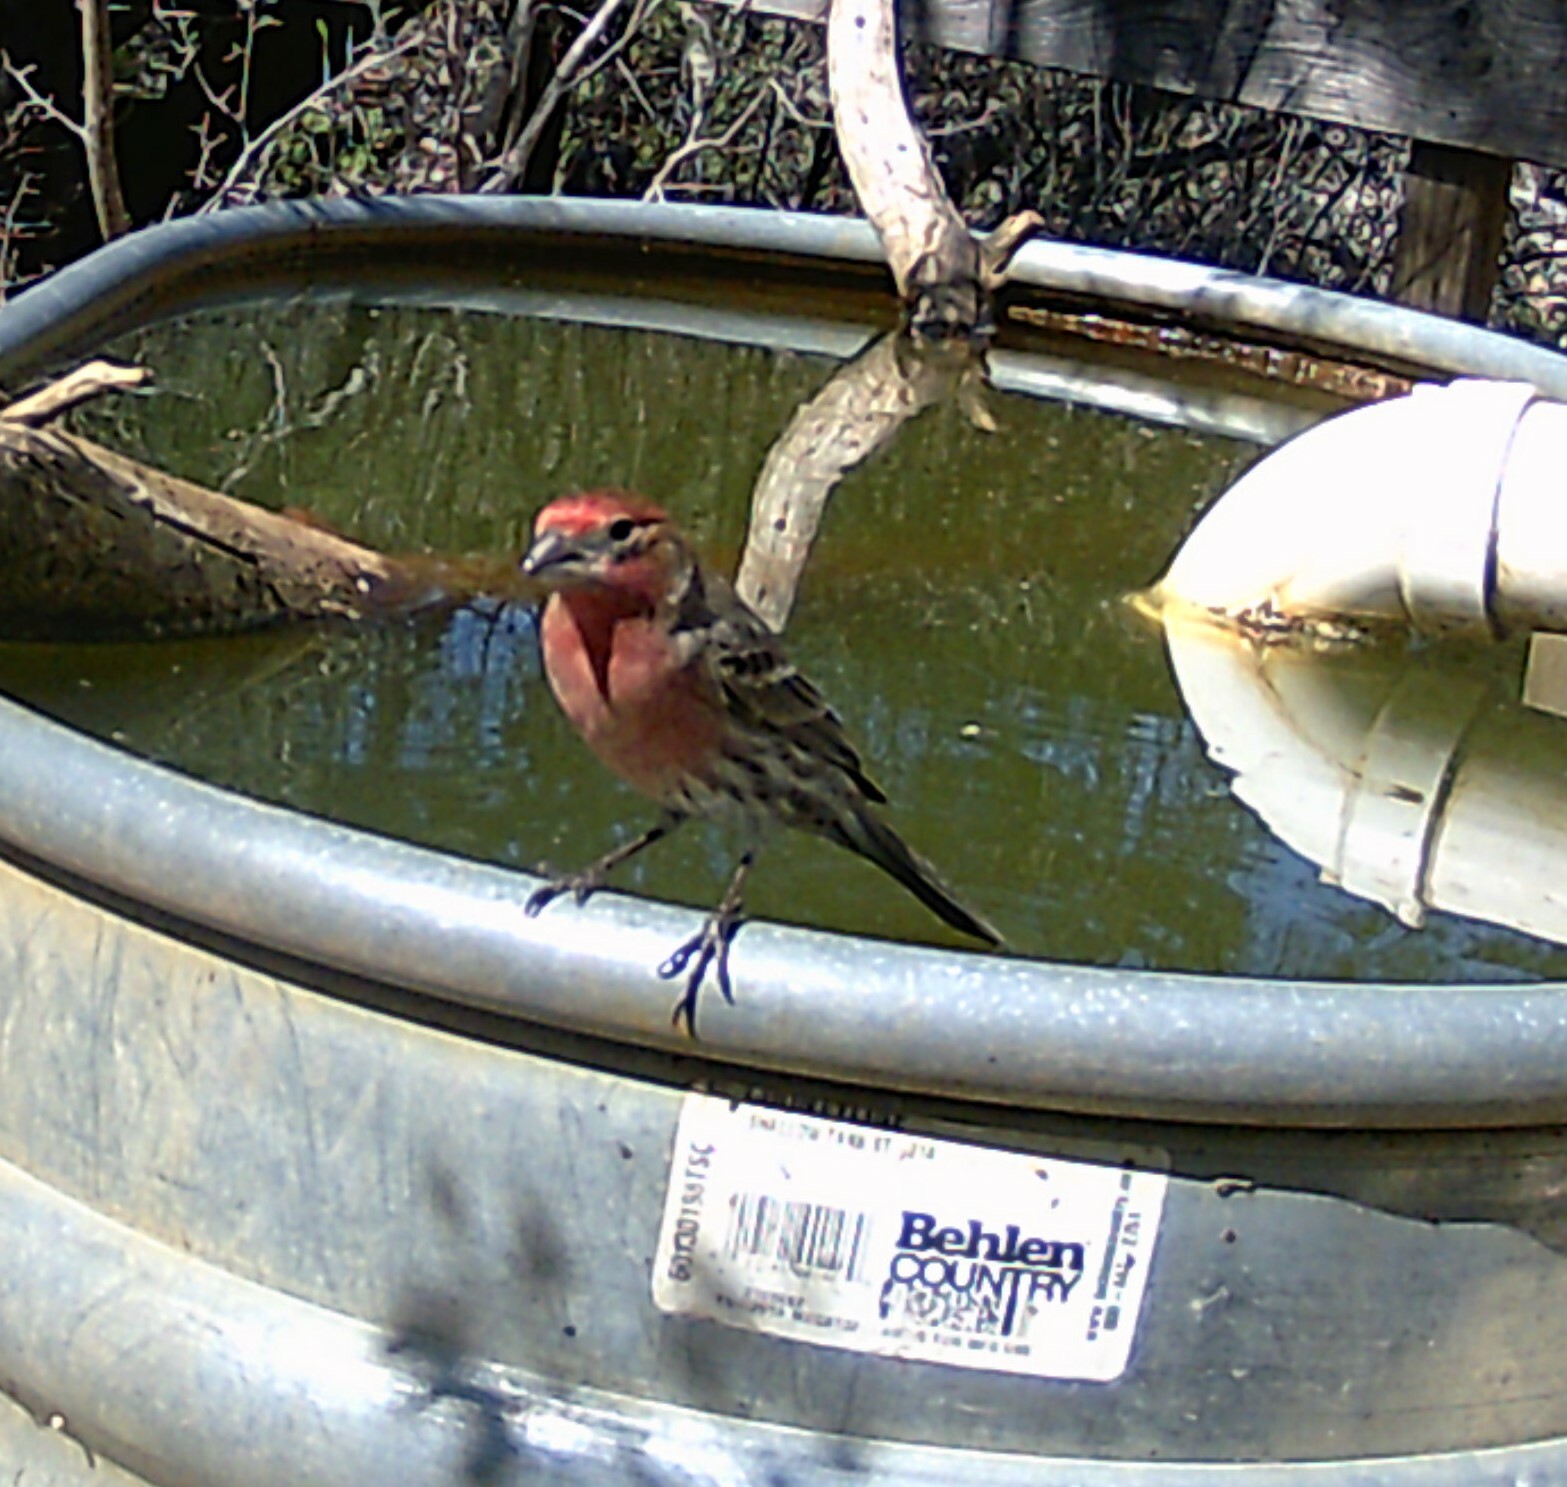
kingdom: Animalia
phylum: Chordata
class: Aves
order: Passeriformes
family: Fringillidae
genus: Haemorhous
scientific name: Haemorhous mexicanus
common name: House finch
